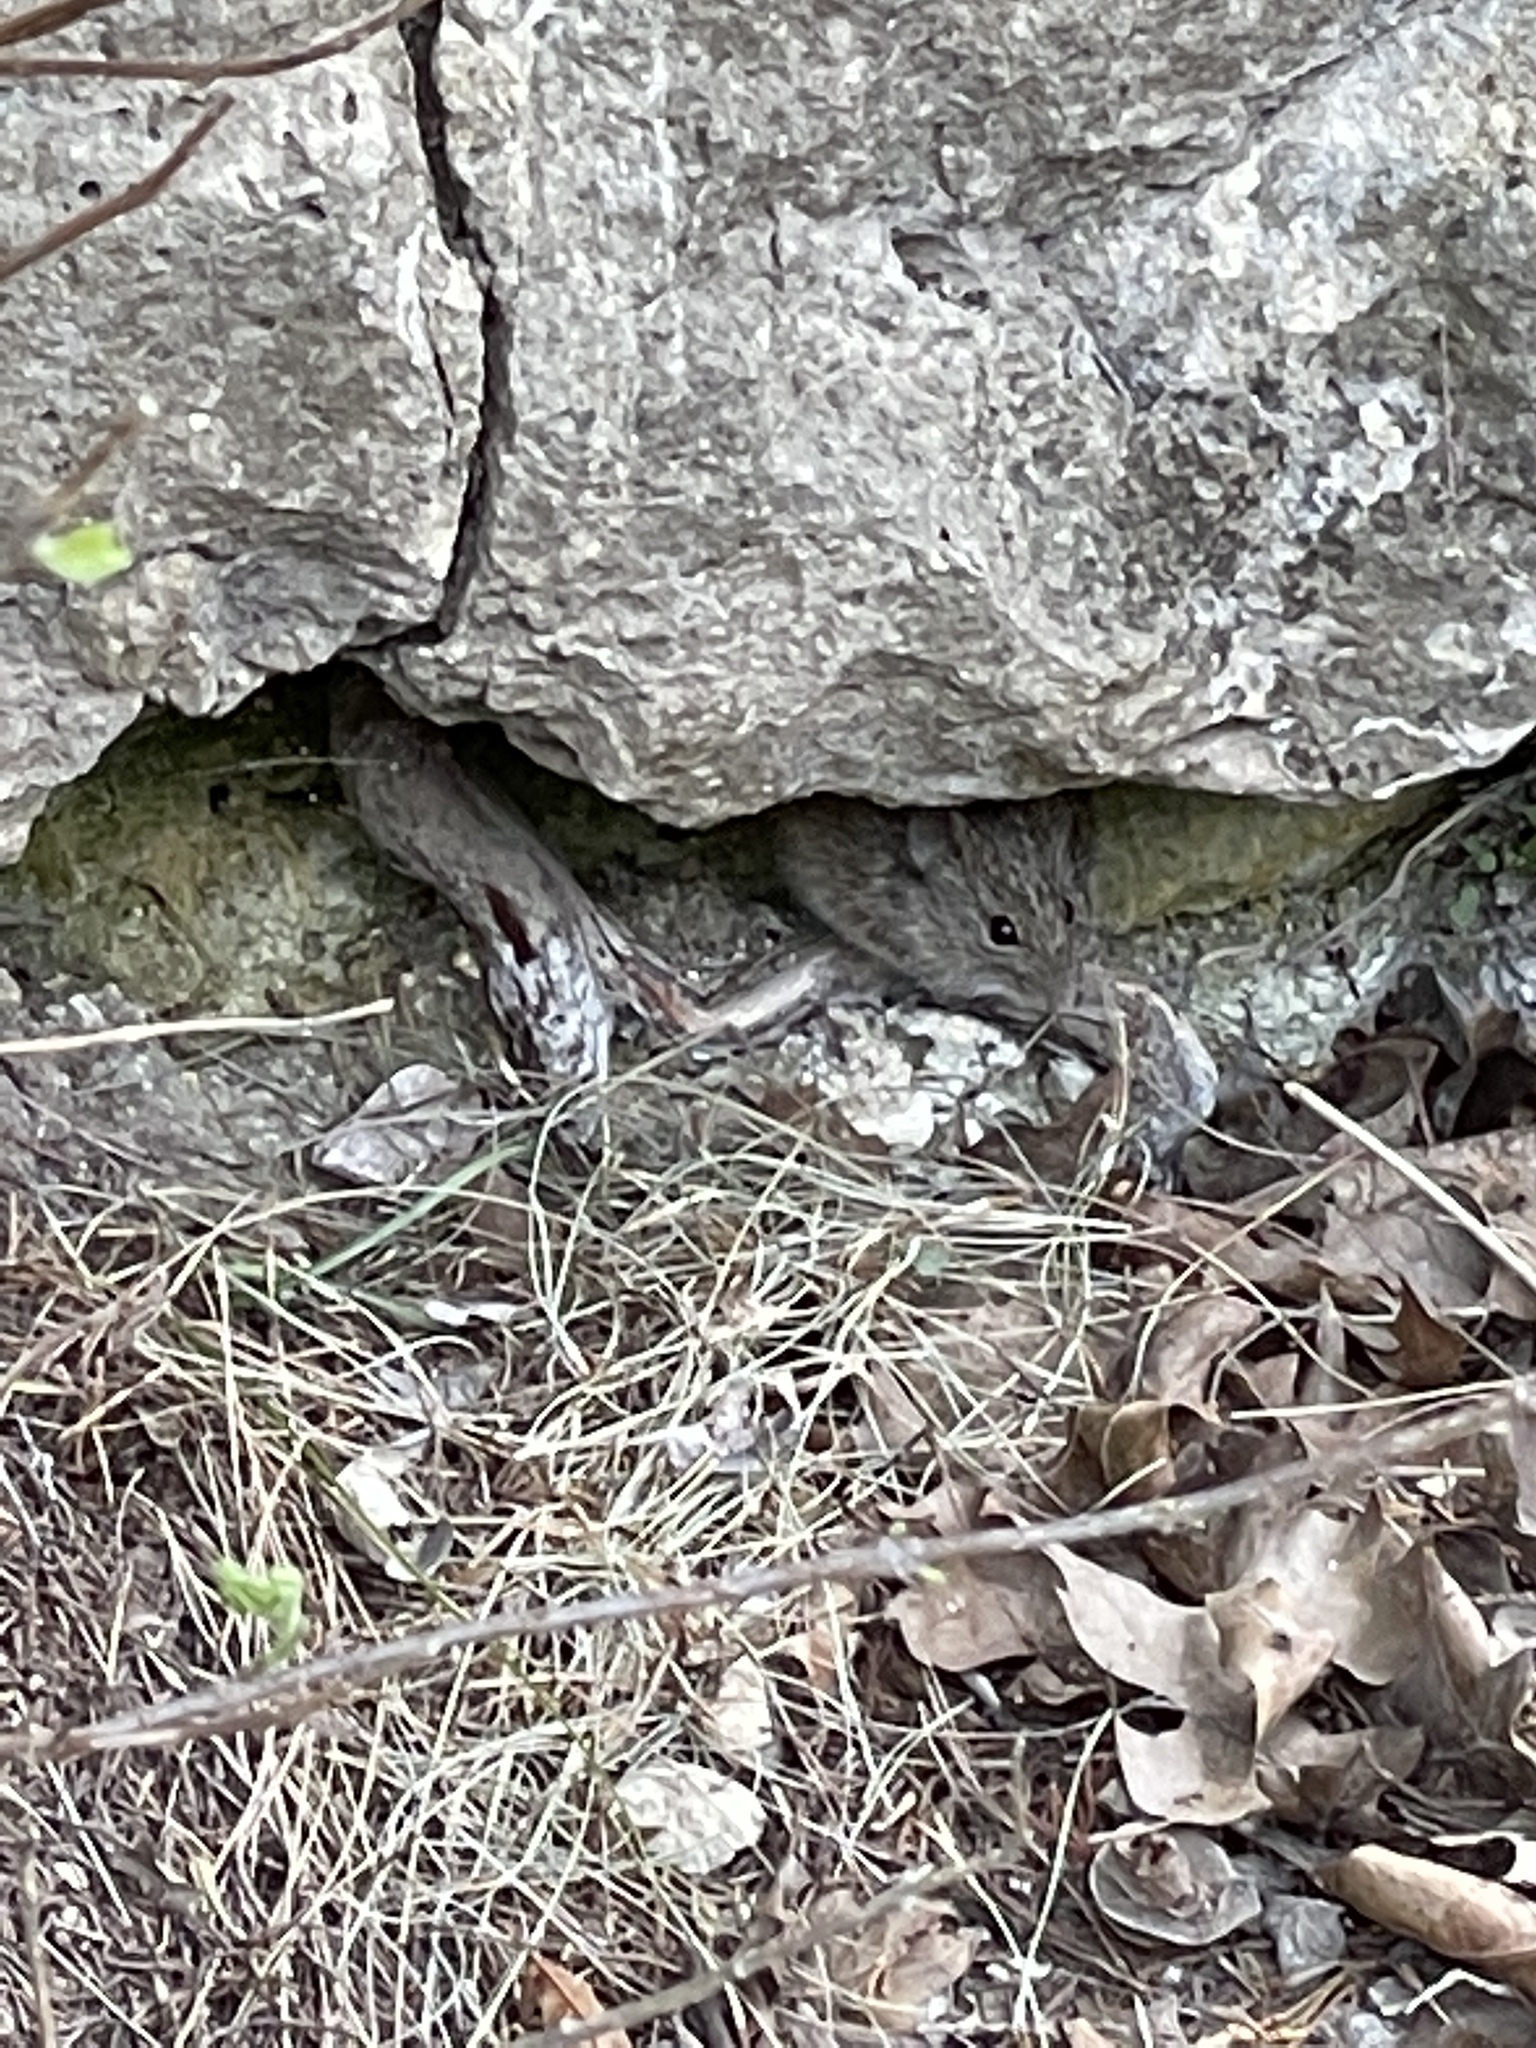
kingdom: Animalia
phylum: Chordata
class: Mammalia
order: Rodentia
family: Cricetidae
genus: Sigmodon
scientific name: Sigmodon hispidus
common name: Hispid cotton rat
